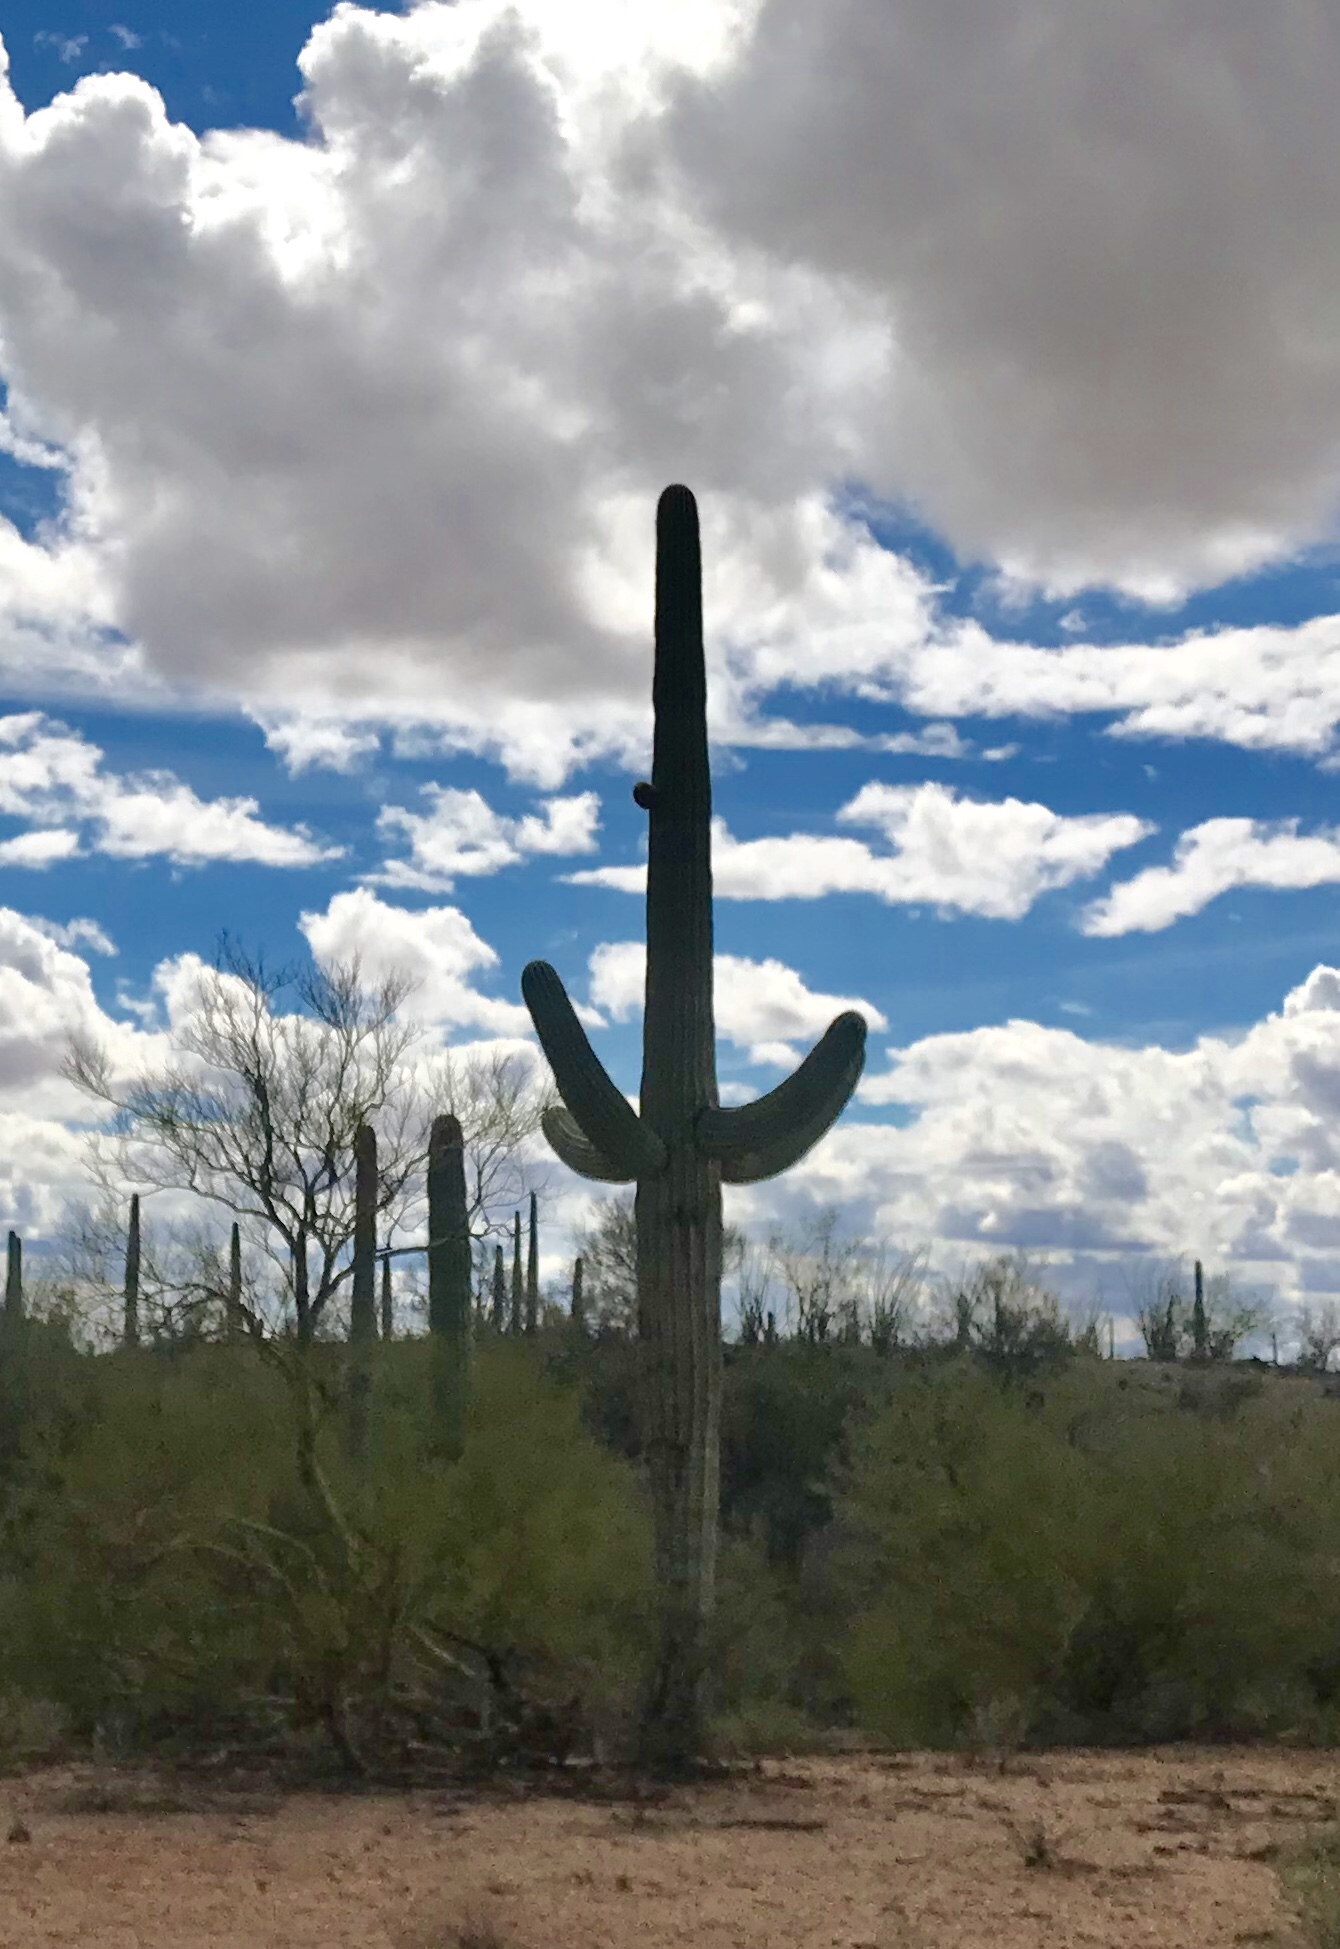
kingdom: Plantae
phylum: Tracheophyta
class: Magnoliopsida
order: Caryophyllales
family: Cactaceae
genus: Carnegiea
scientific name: Carnegiea gigantea
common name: Saguaro
